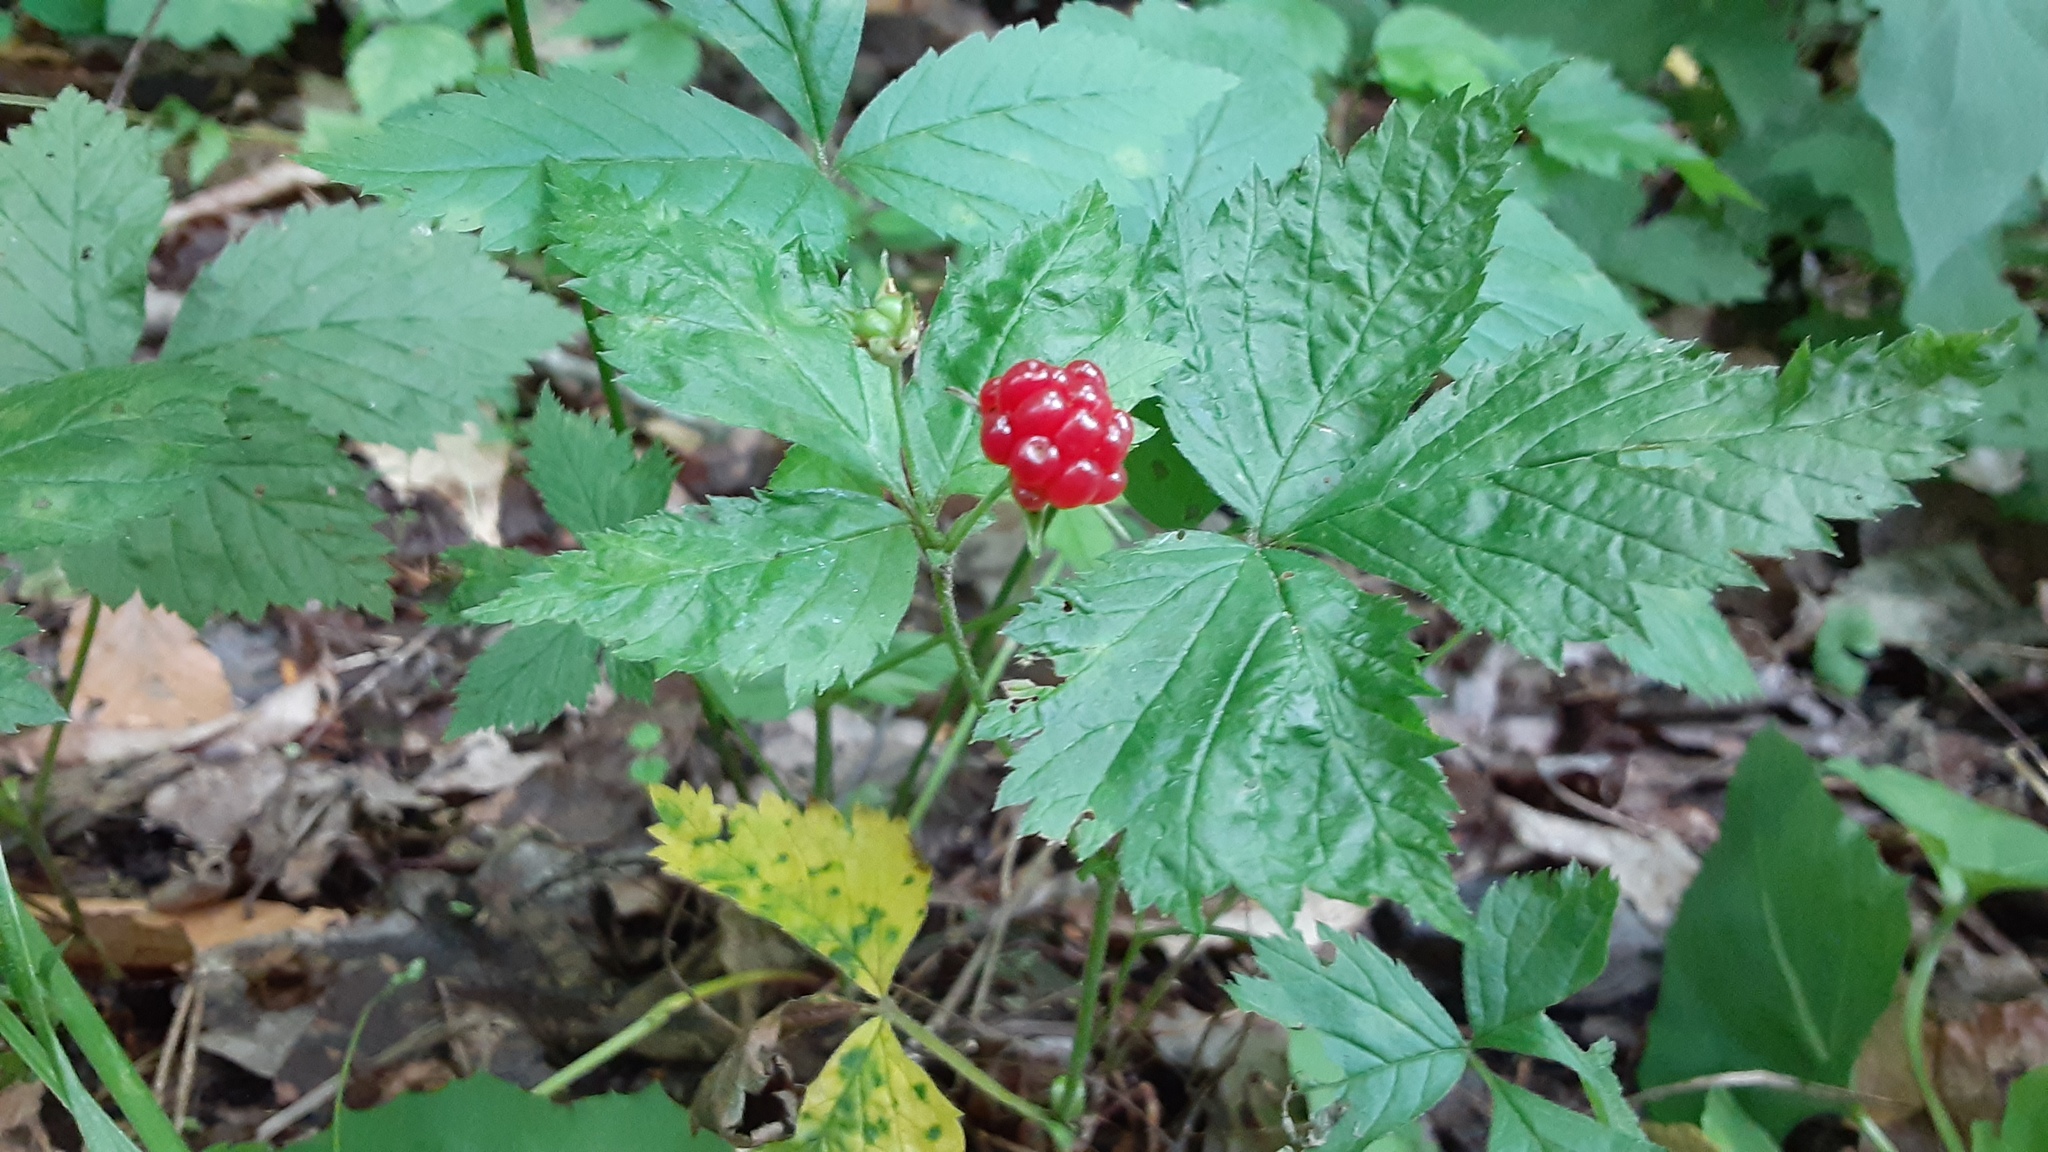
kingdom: Plantae
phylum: Tracheophyta
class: Magnoliopsida
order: Rosales
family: Rosaceae
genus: Rubus
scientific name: Rubus pubescens
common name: Dwarf raspberry
